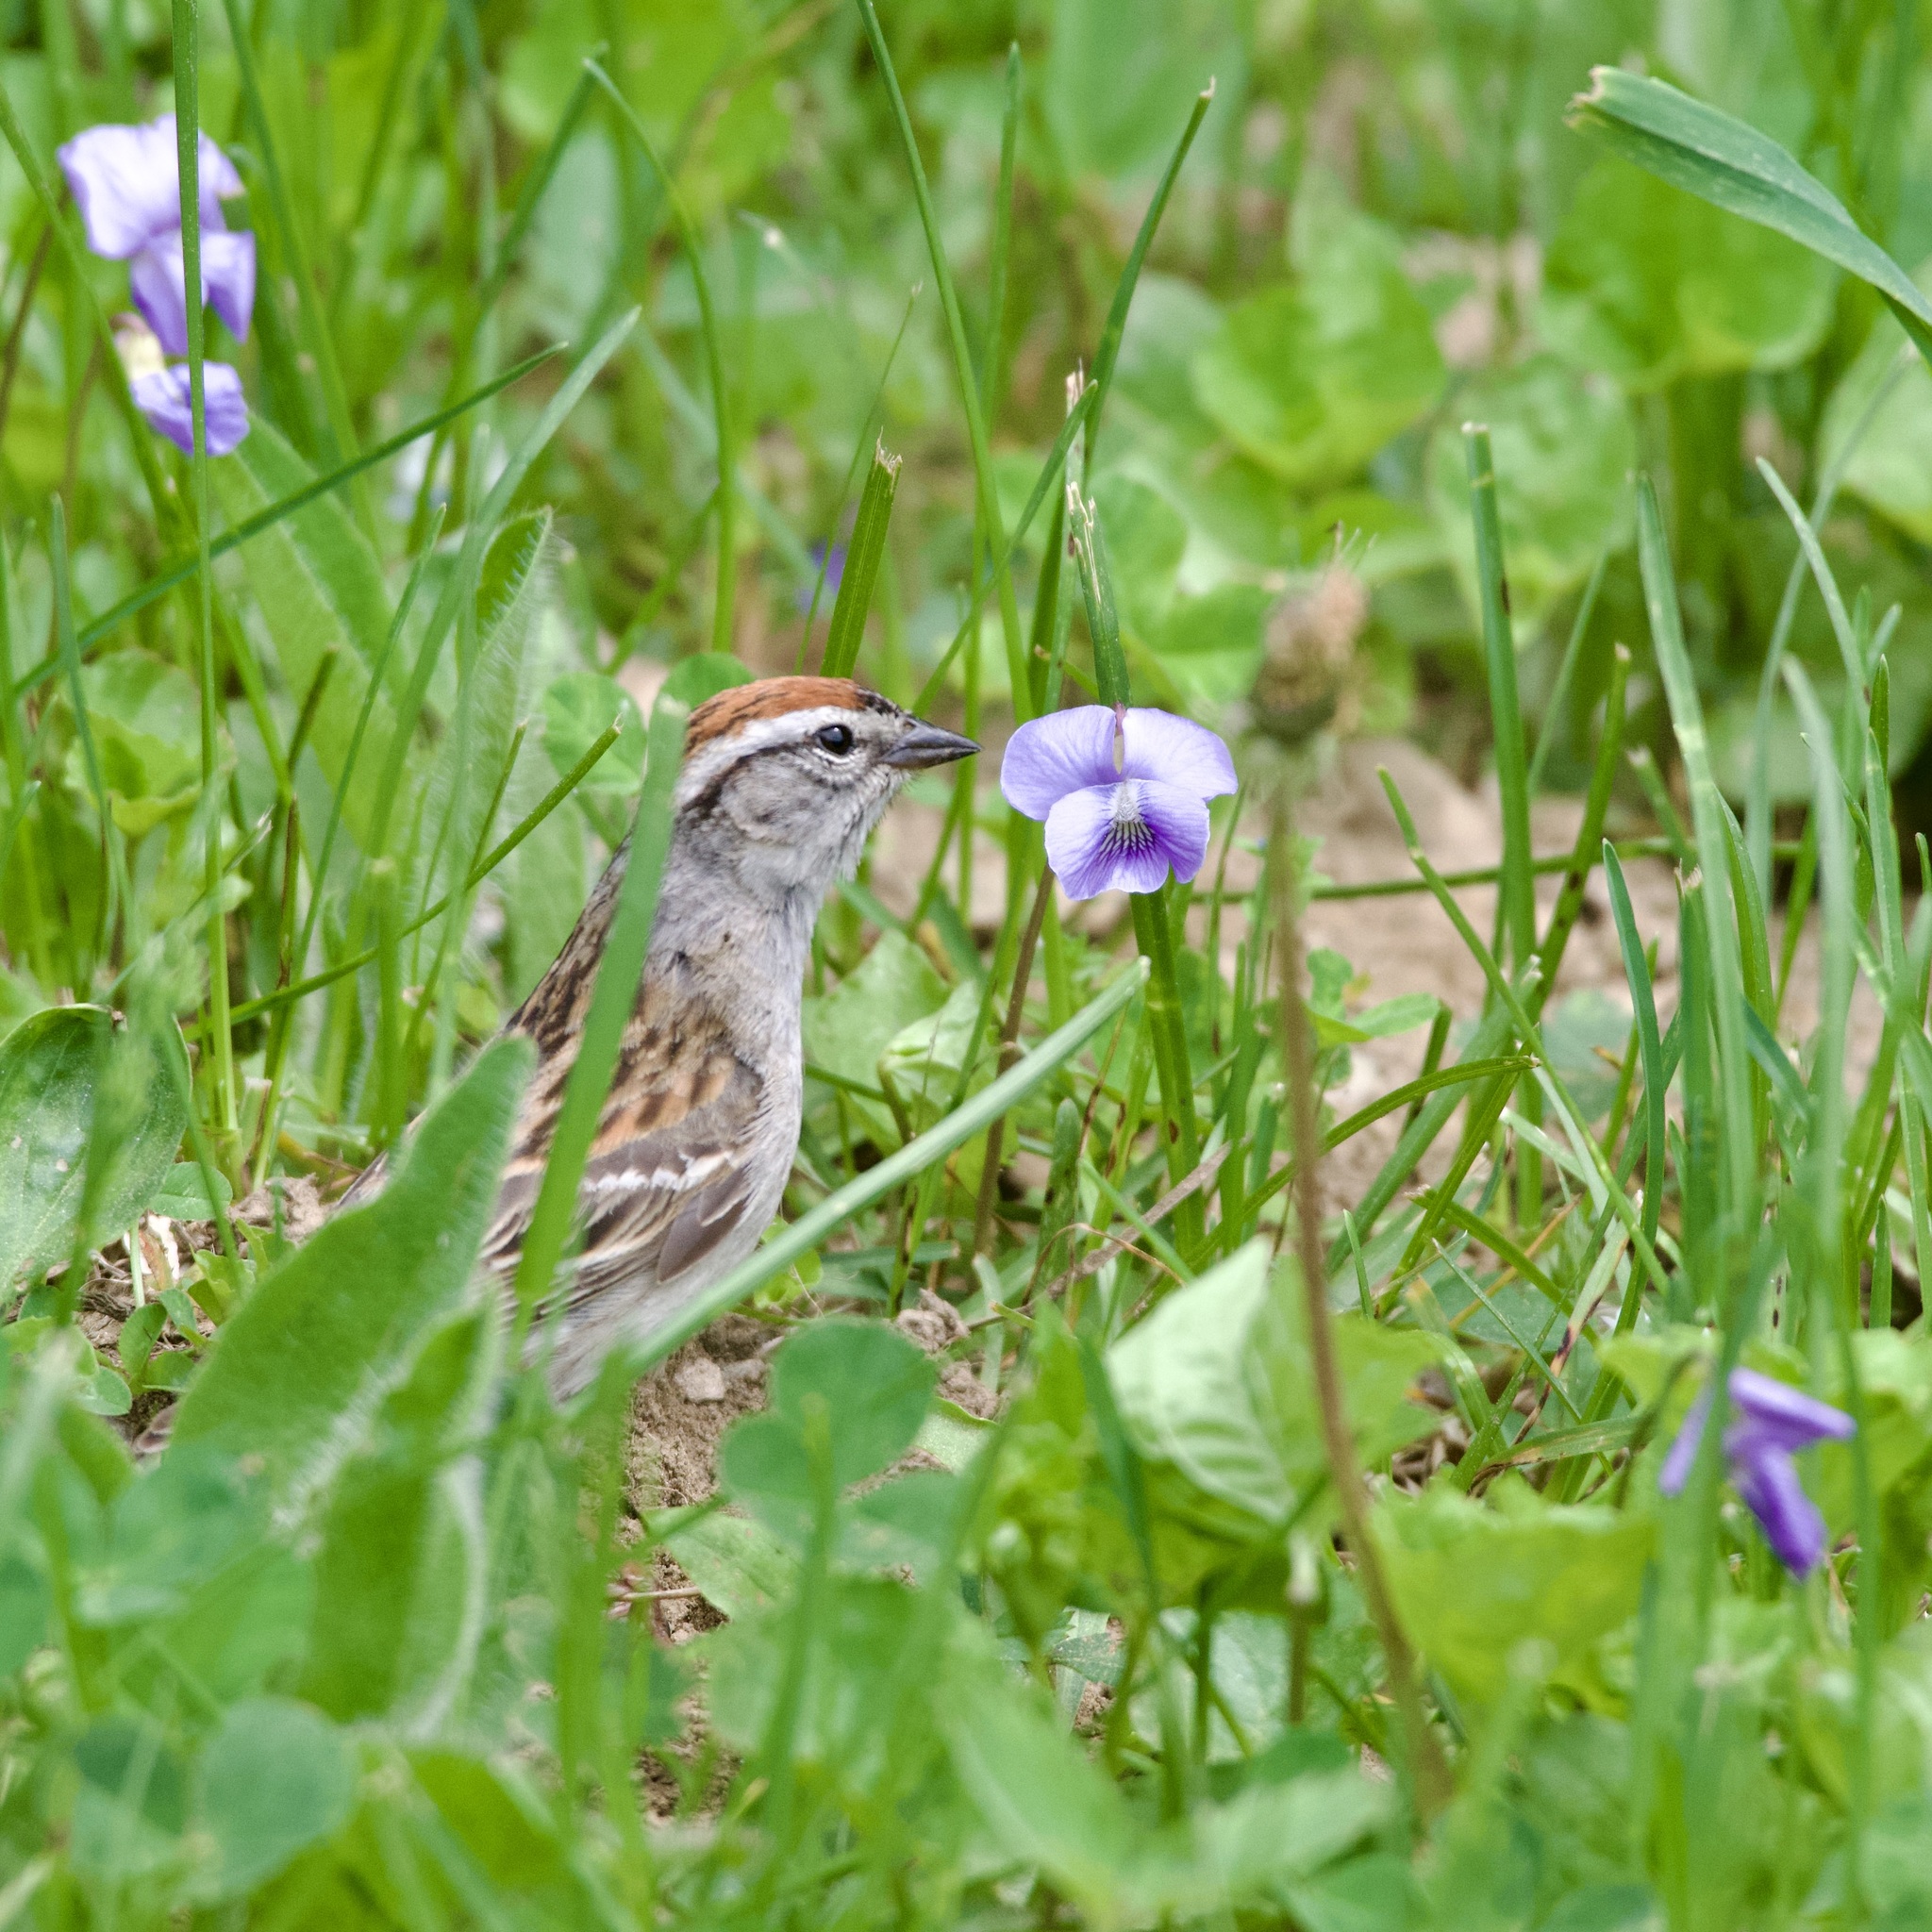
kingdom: Animalia
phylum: Chordata
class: Aves
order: Passeriformes
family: Passerellidae
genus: Spizella
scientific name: Spizella passerina
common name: Chipping sparrow
